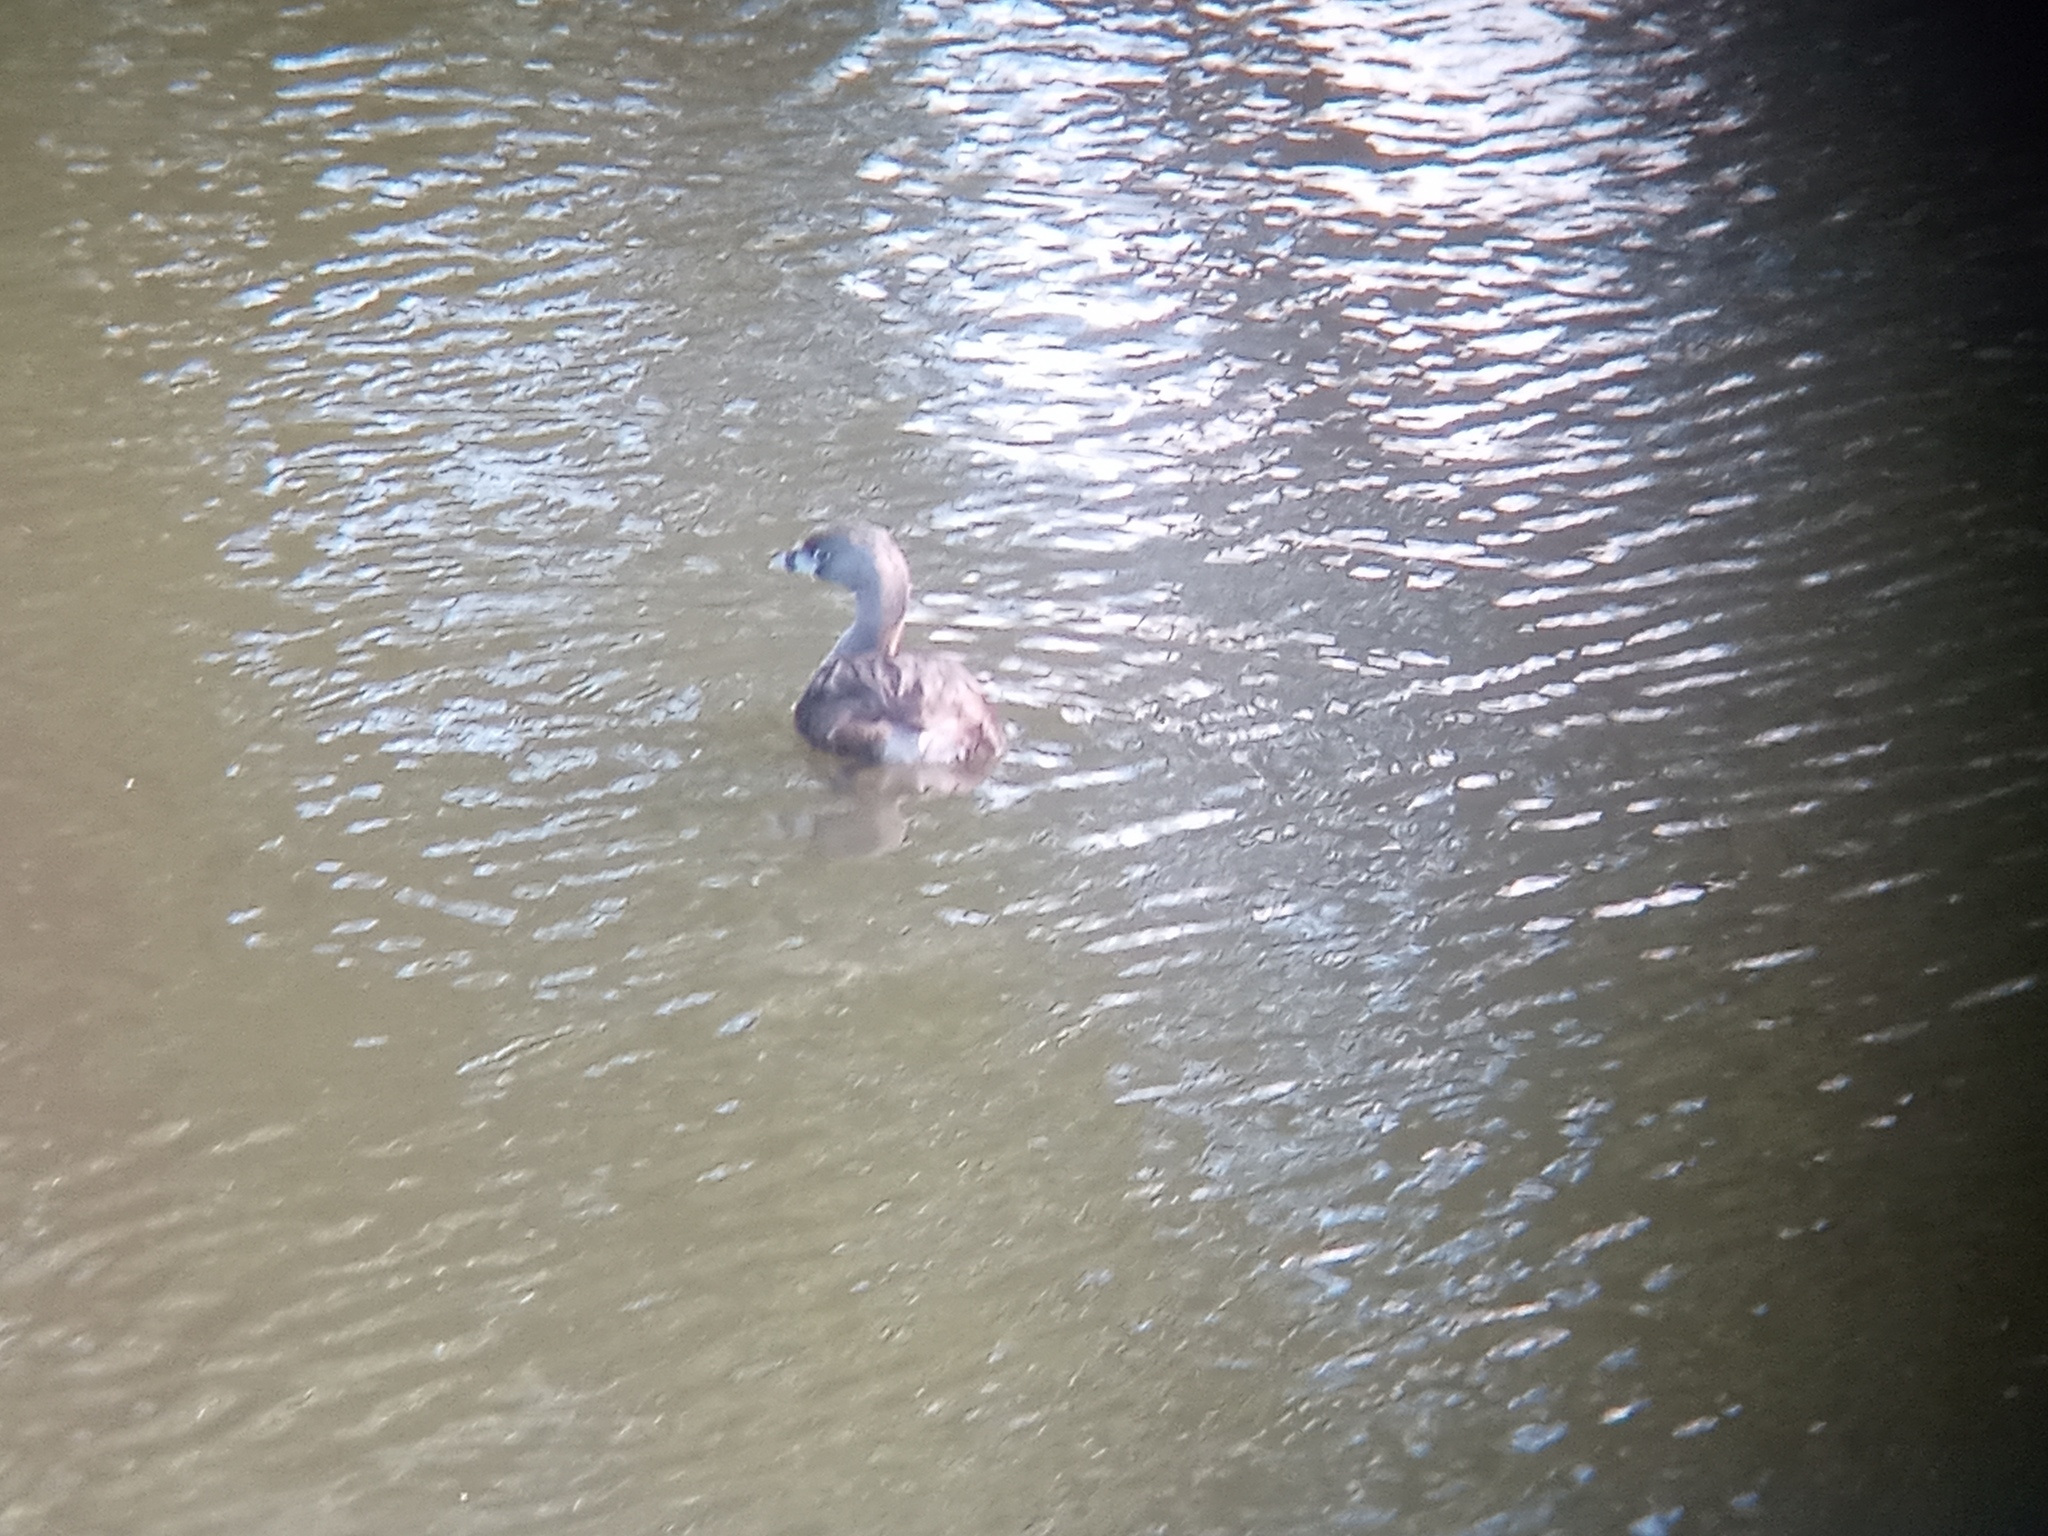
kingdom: Animalia
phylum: Chordata
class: Aves
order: Podicipediformes
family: Podicipedidae
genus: Podilymbus
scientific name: Podilymbus podiceps
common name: Pied-billed grebe
